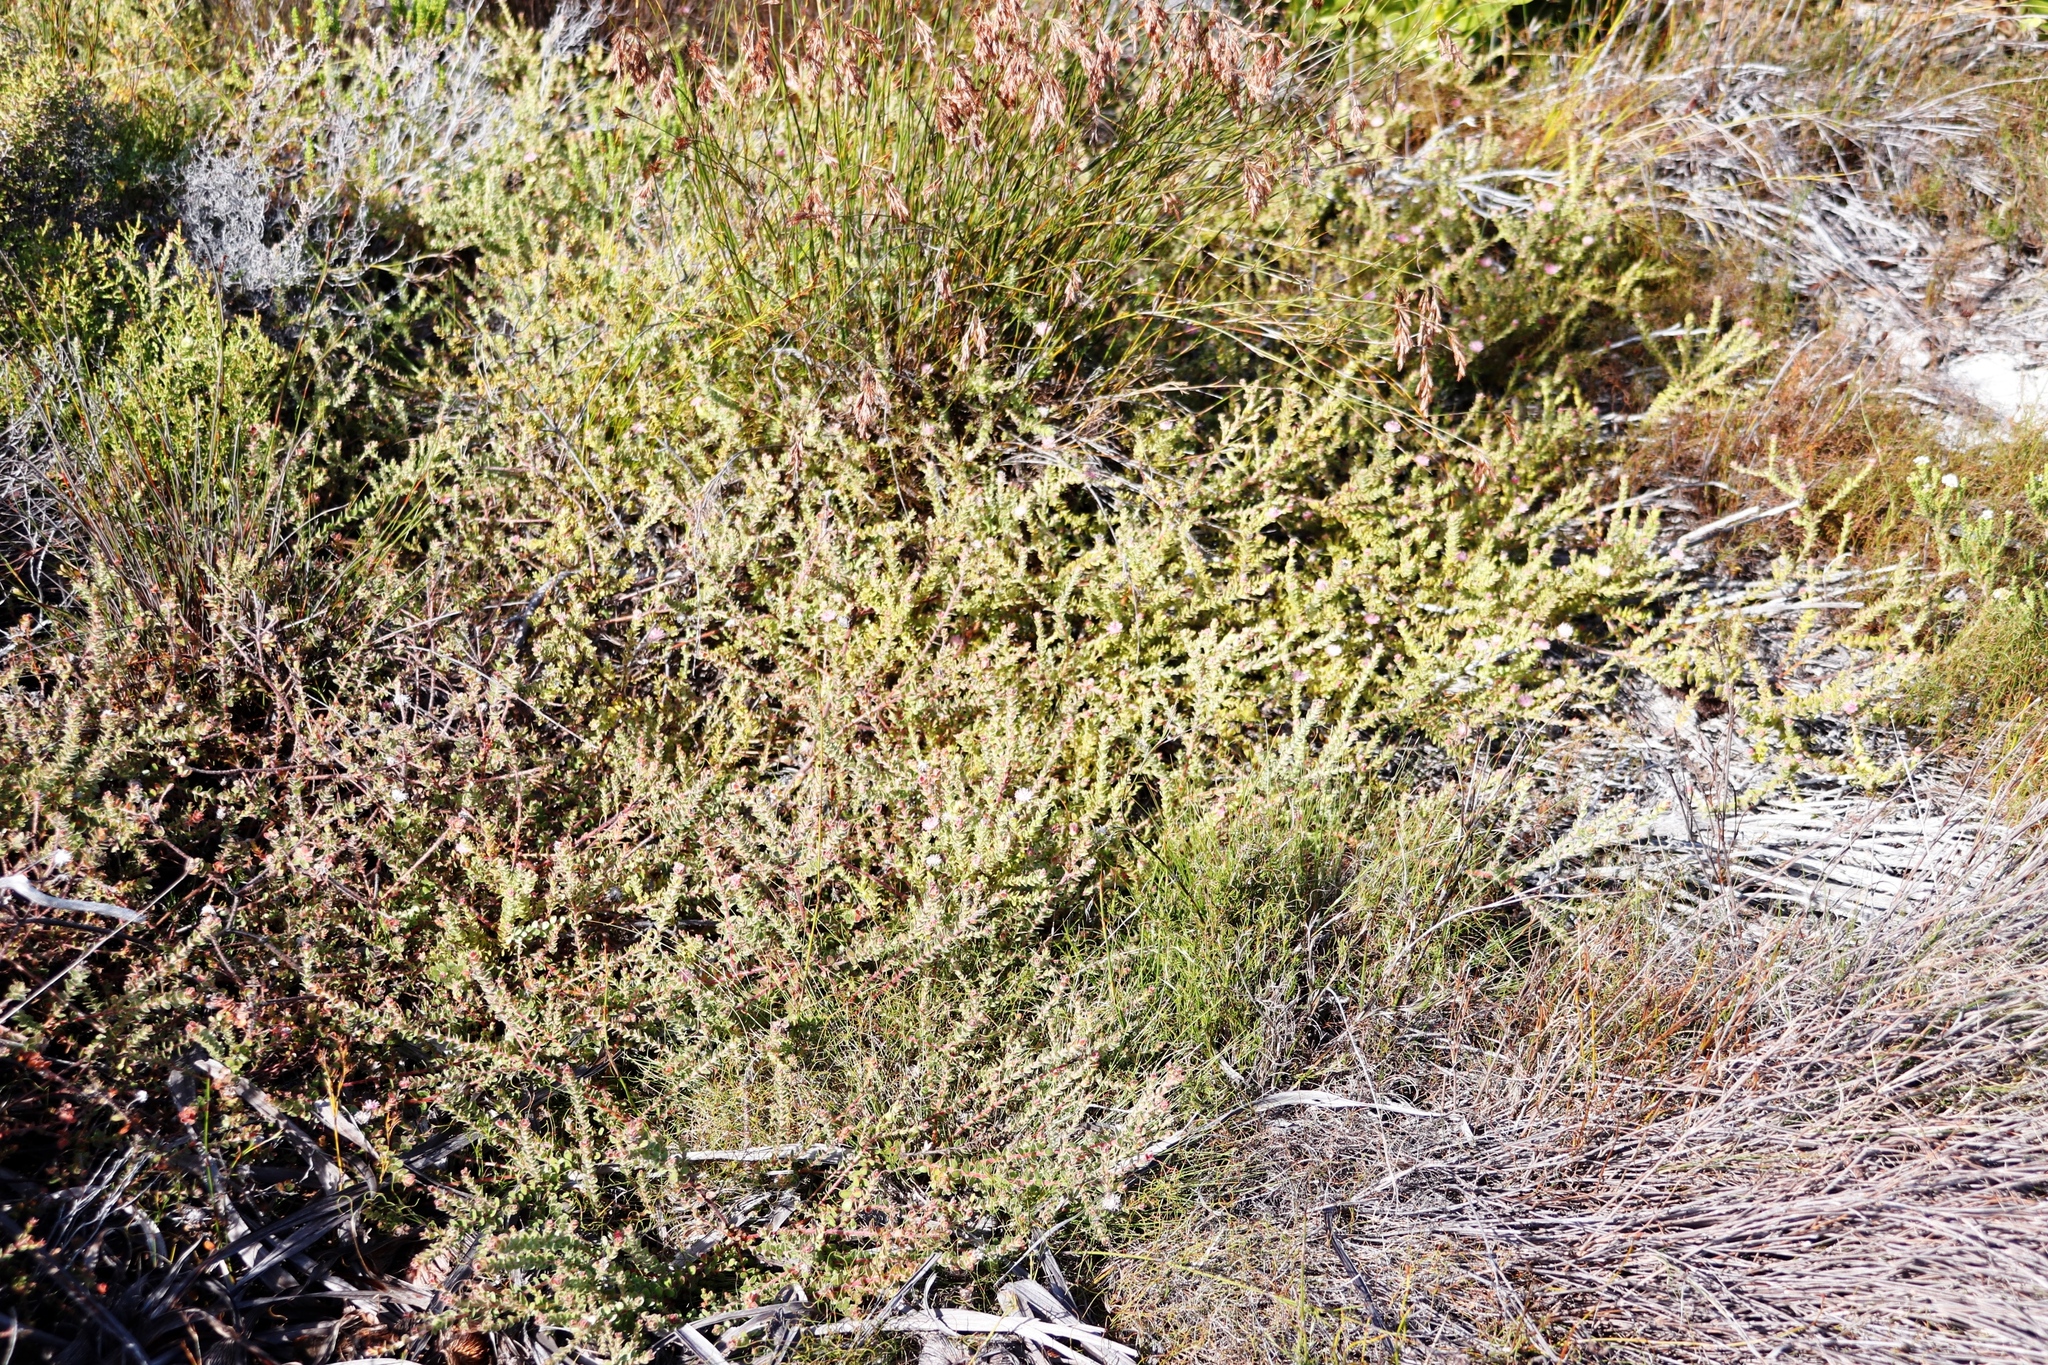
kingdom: Plantae
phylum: Tracheophyta
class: Magnoliopsida
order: Proteales
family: Proteaceae
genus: Diastella
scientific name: Diastella divaricata
